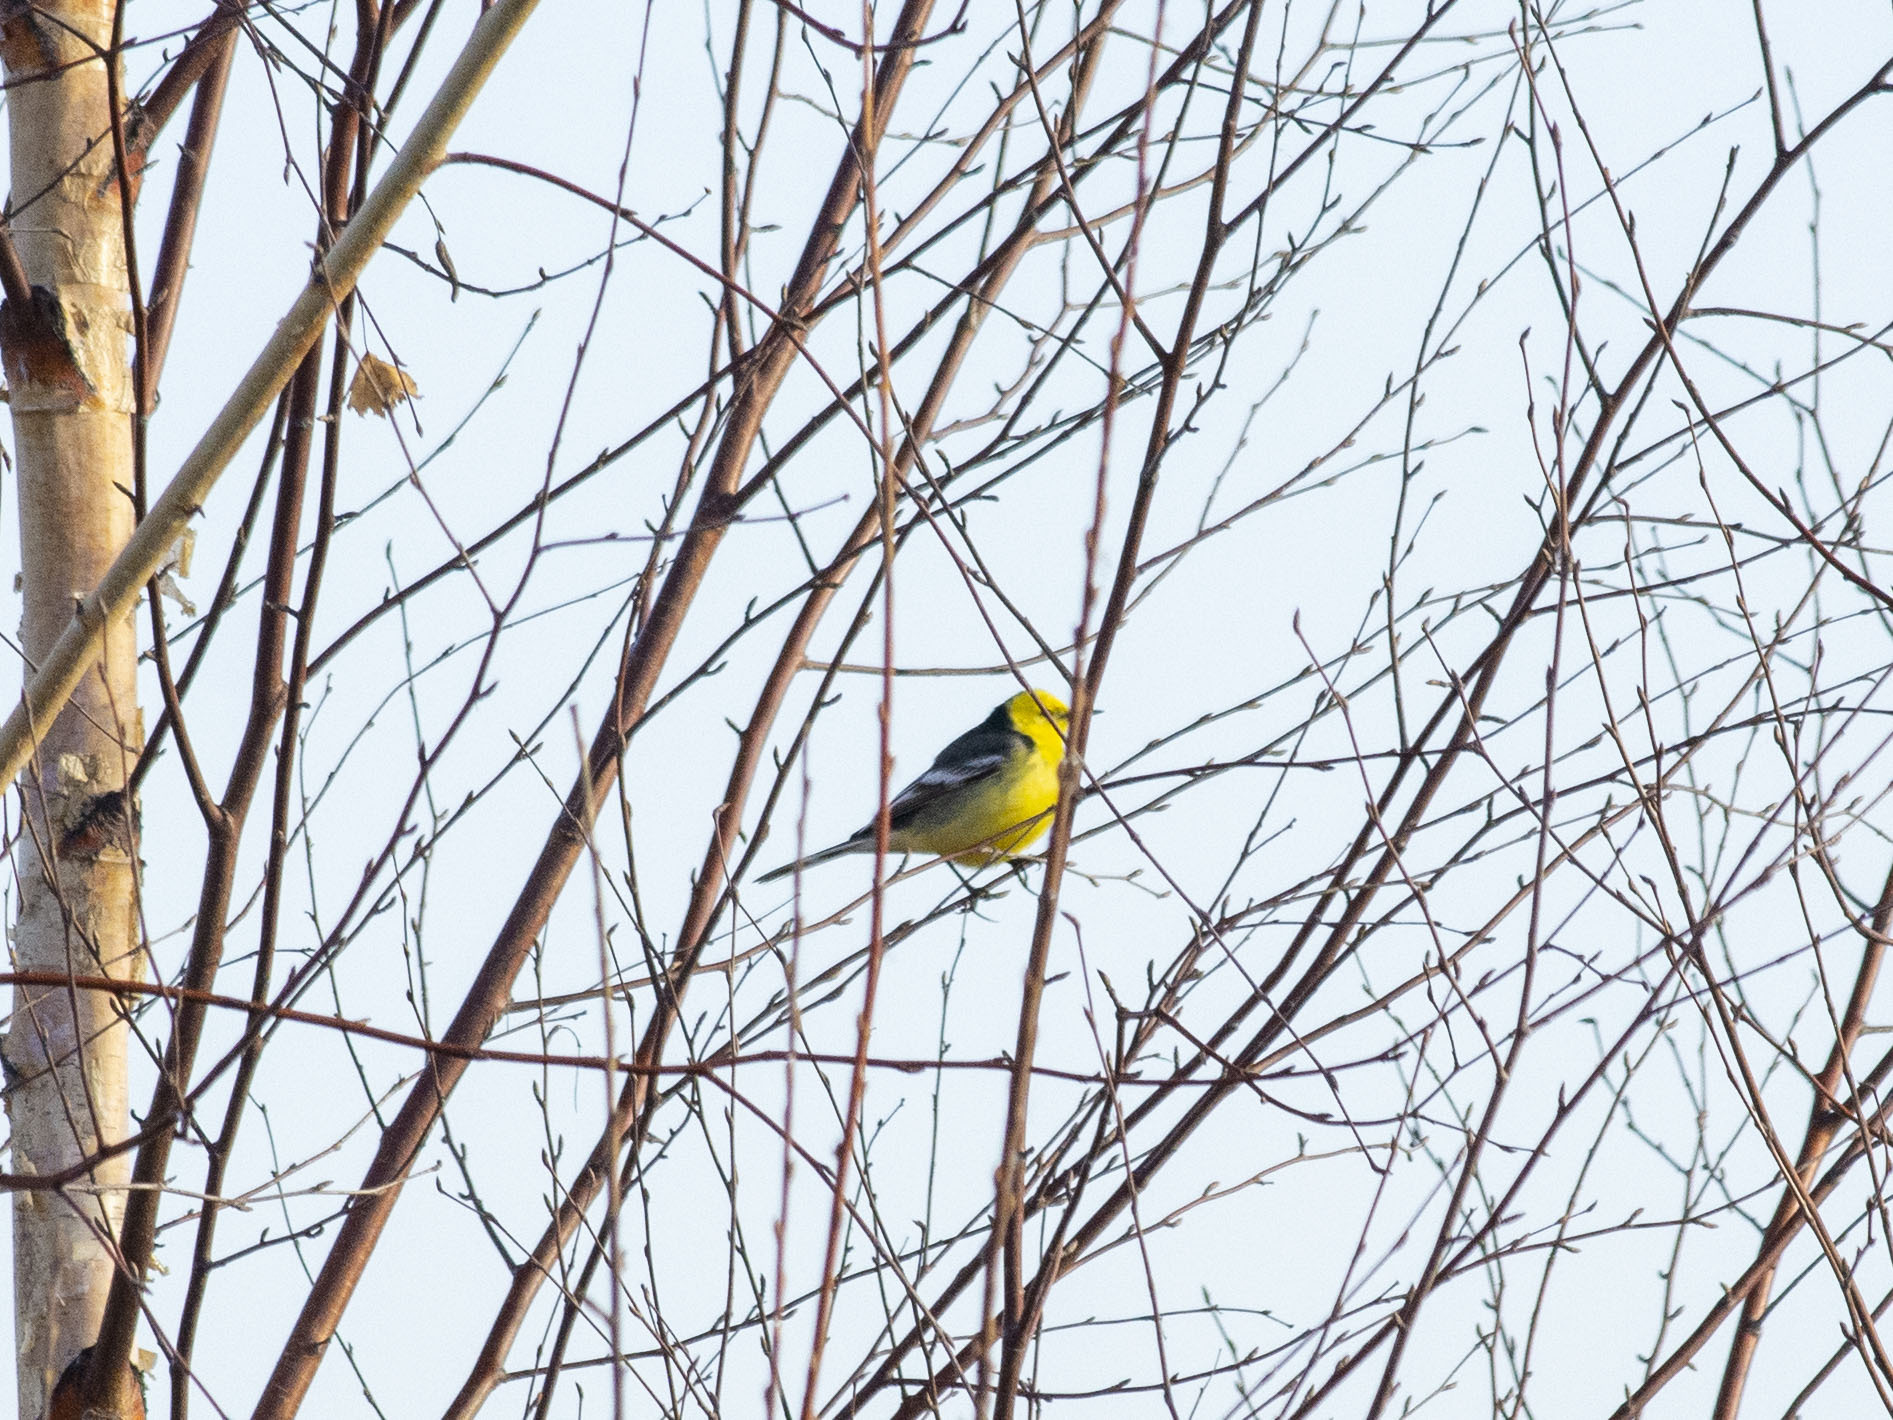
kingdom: Animalia
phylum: Chordata
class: Aves
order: Passeriformes
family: Motacillidae
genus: Motacilla
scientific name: Motacilla citreola
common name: Citrine wagtail
